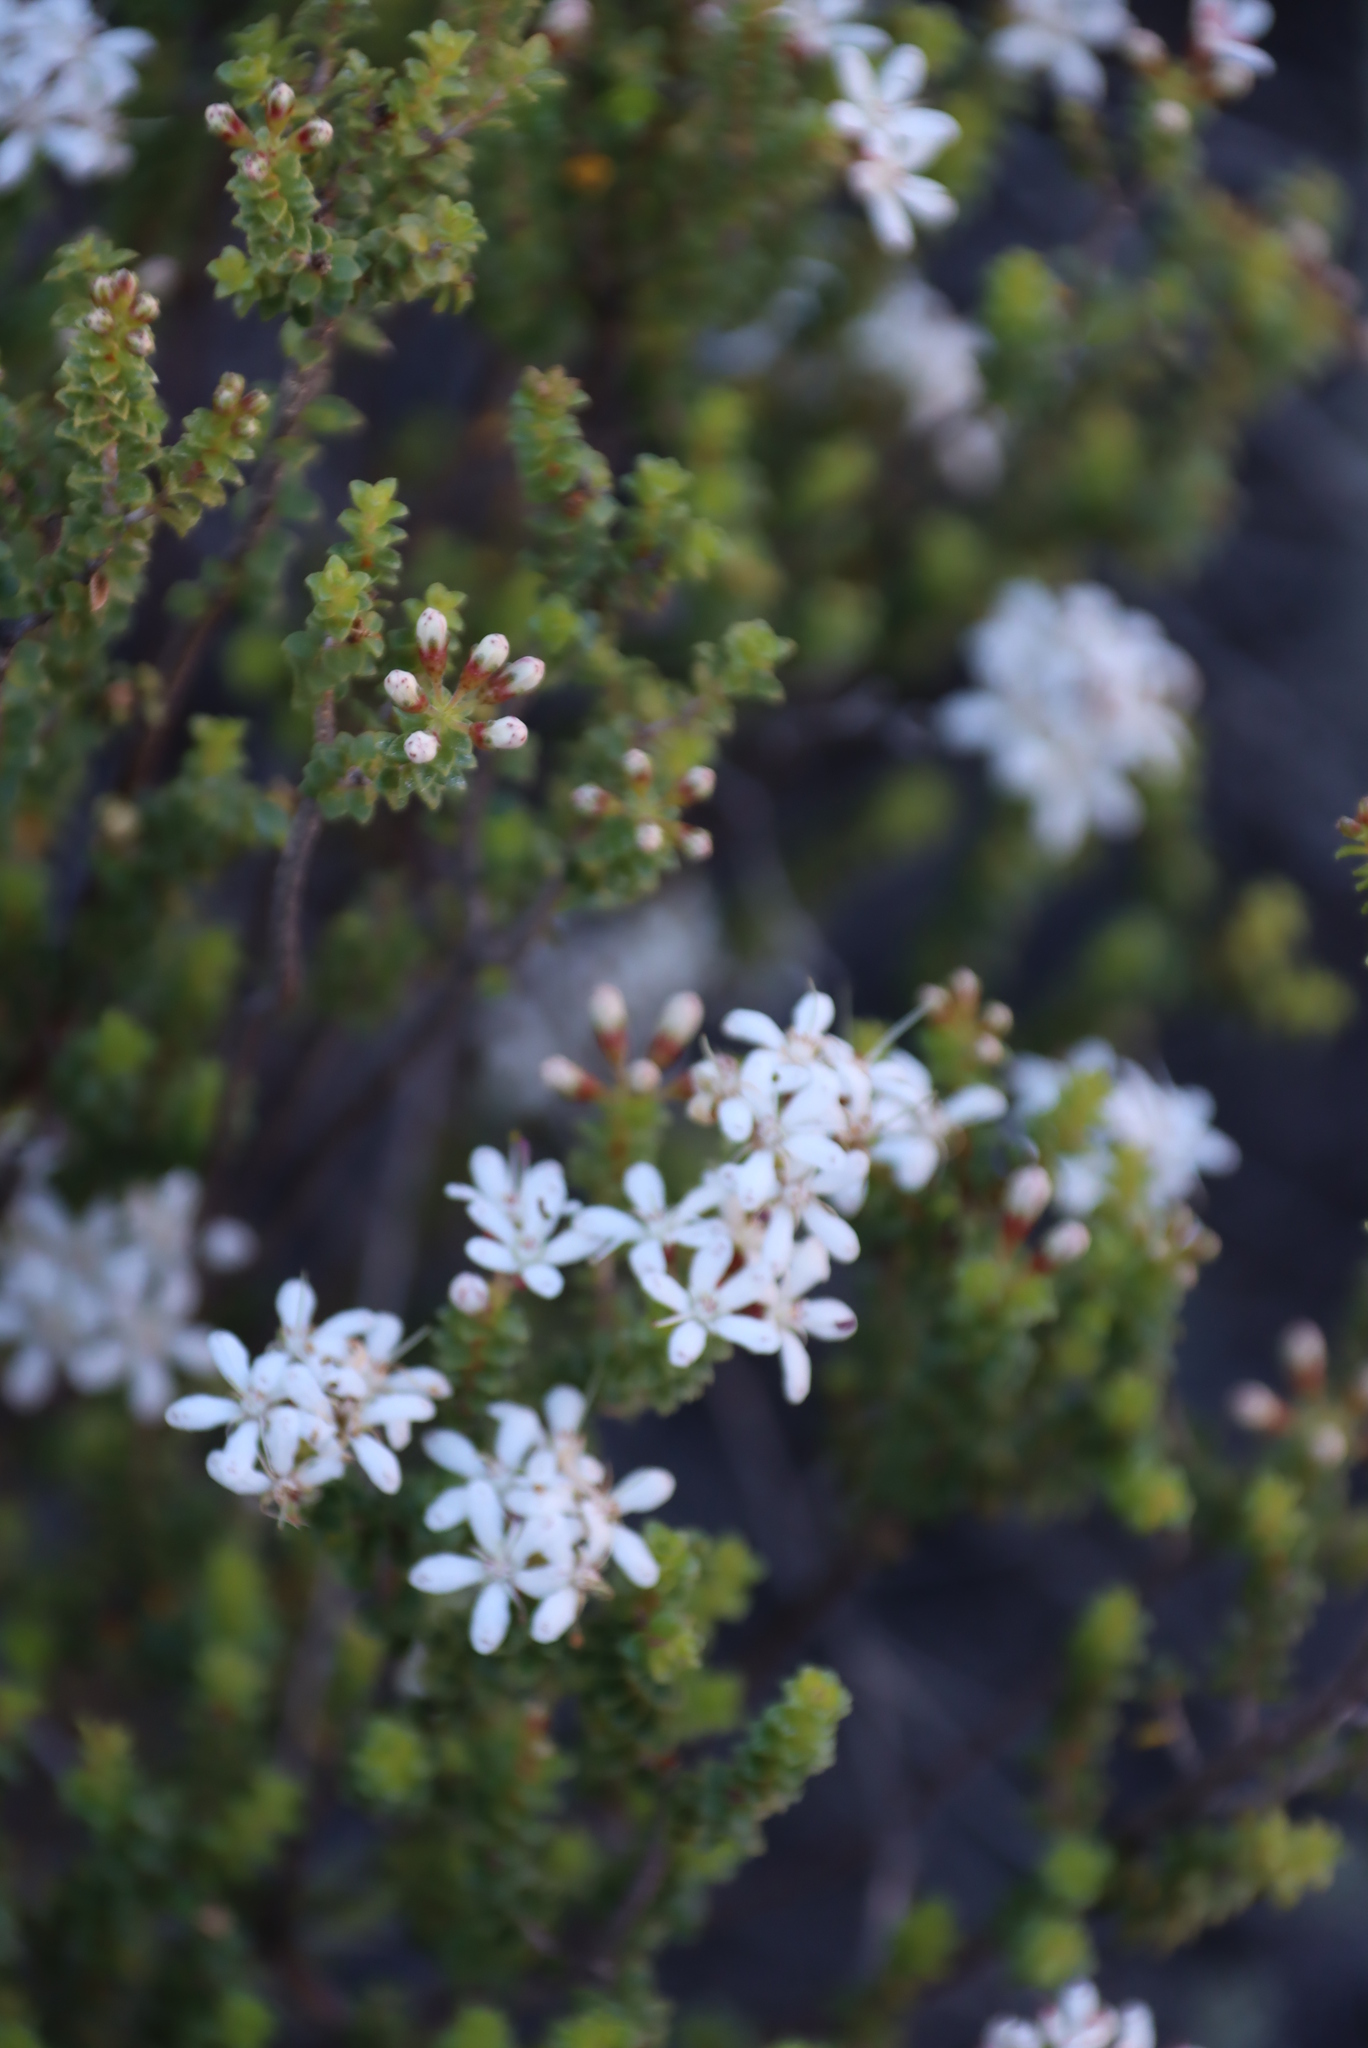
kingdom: Plantae
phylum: Tracheophyta
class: Magnoliopsida
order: Sapindales
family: Rutaceae
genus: Agathosma
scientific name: Agathosma recurvifolia
